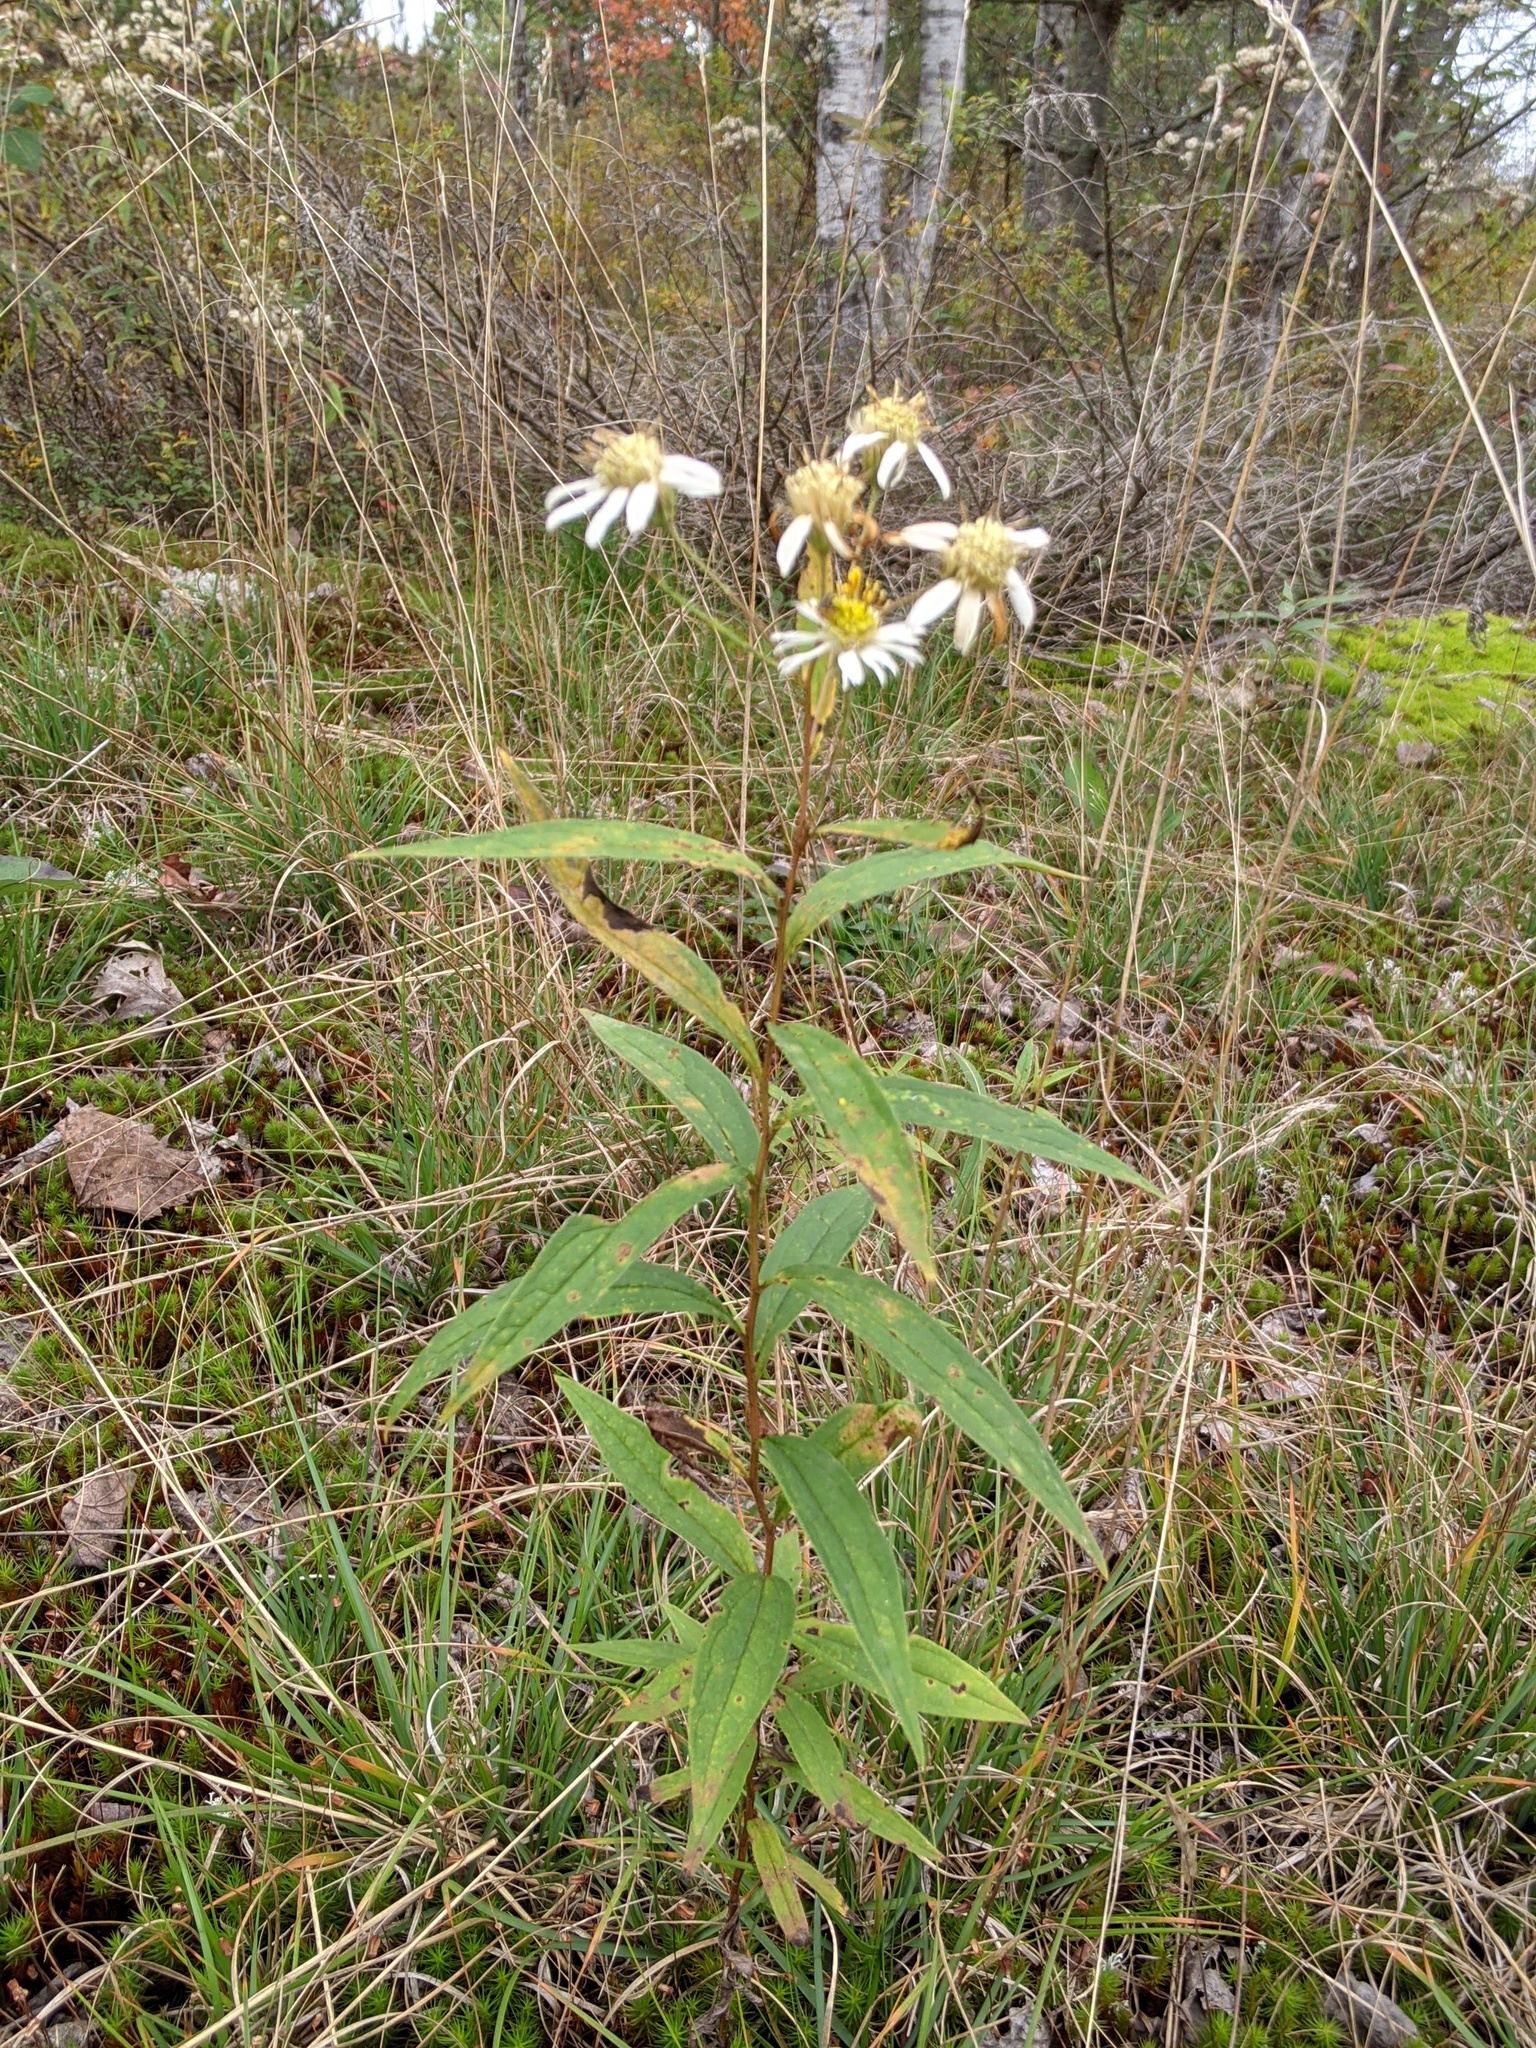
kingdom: Plantae
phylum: Tracheophyta
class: Magnoliopsida
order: Asterales
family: Asteraceae
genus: Doellingeria
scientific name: Doellingeria umbellata
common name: Flat-top white aster
